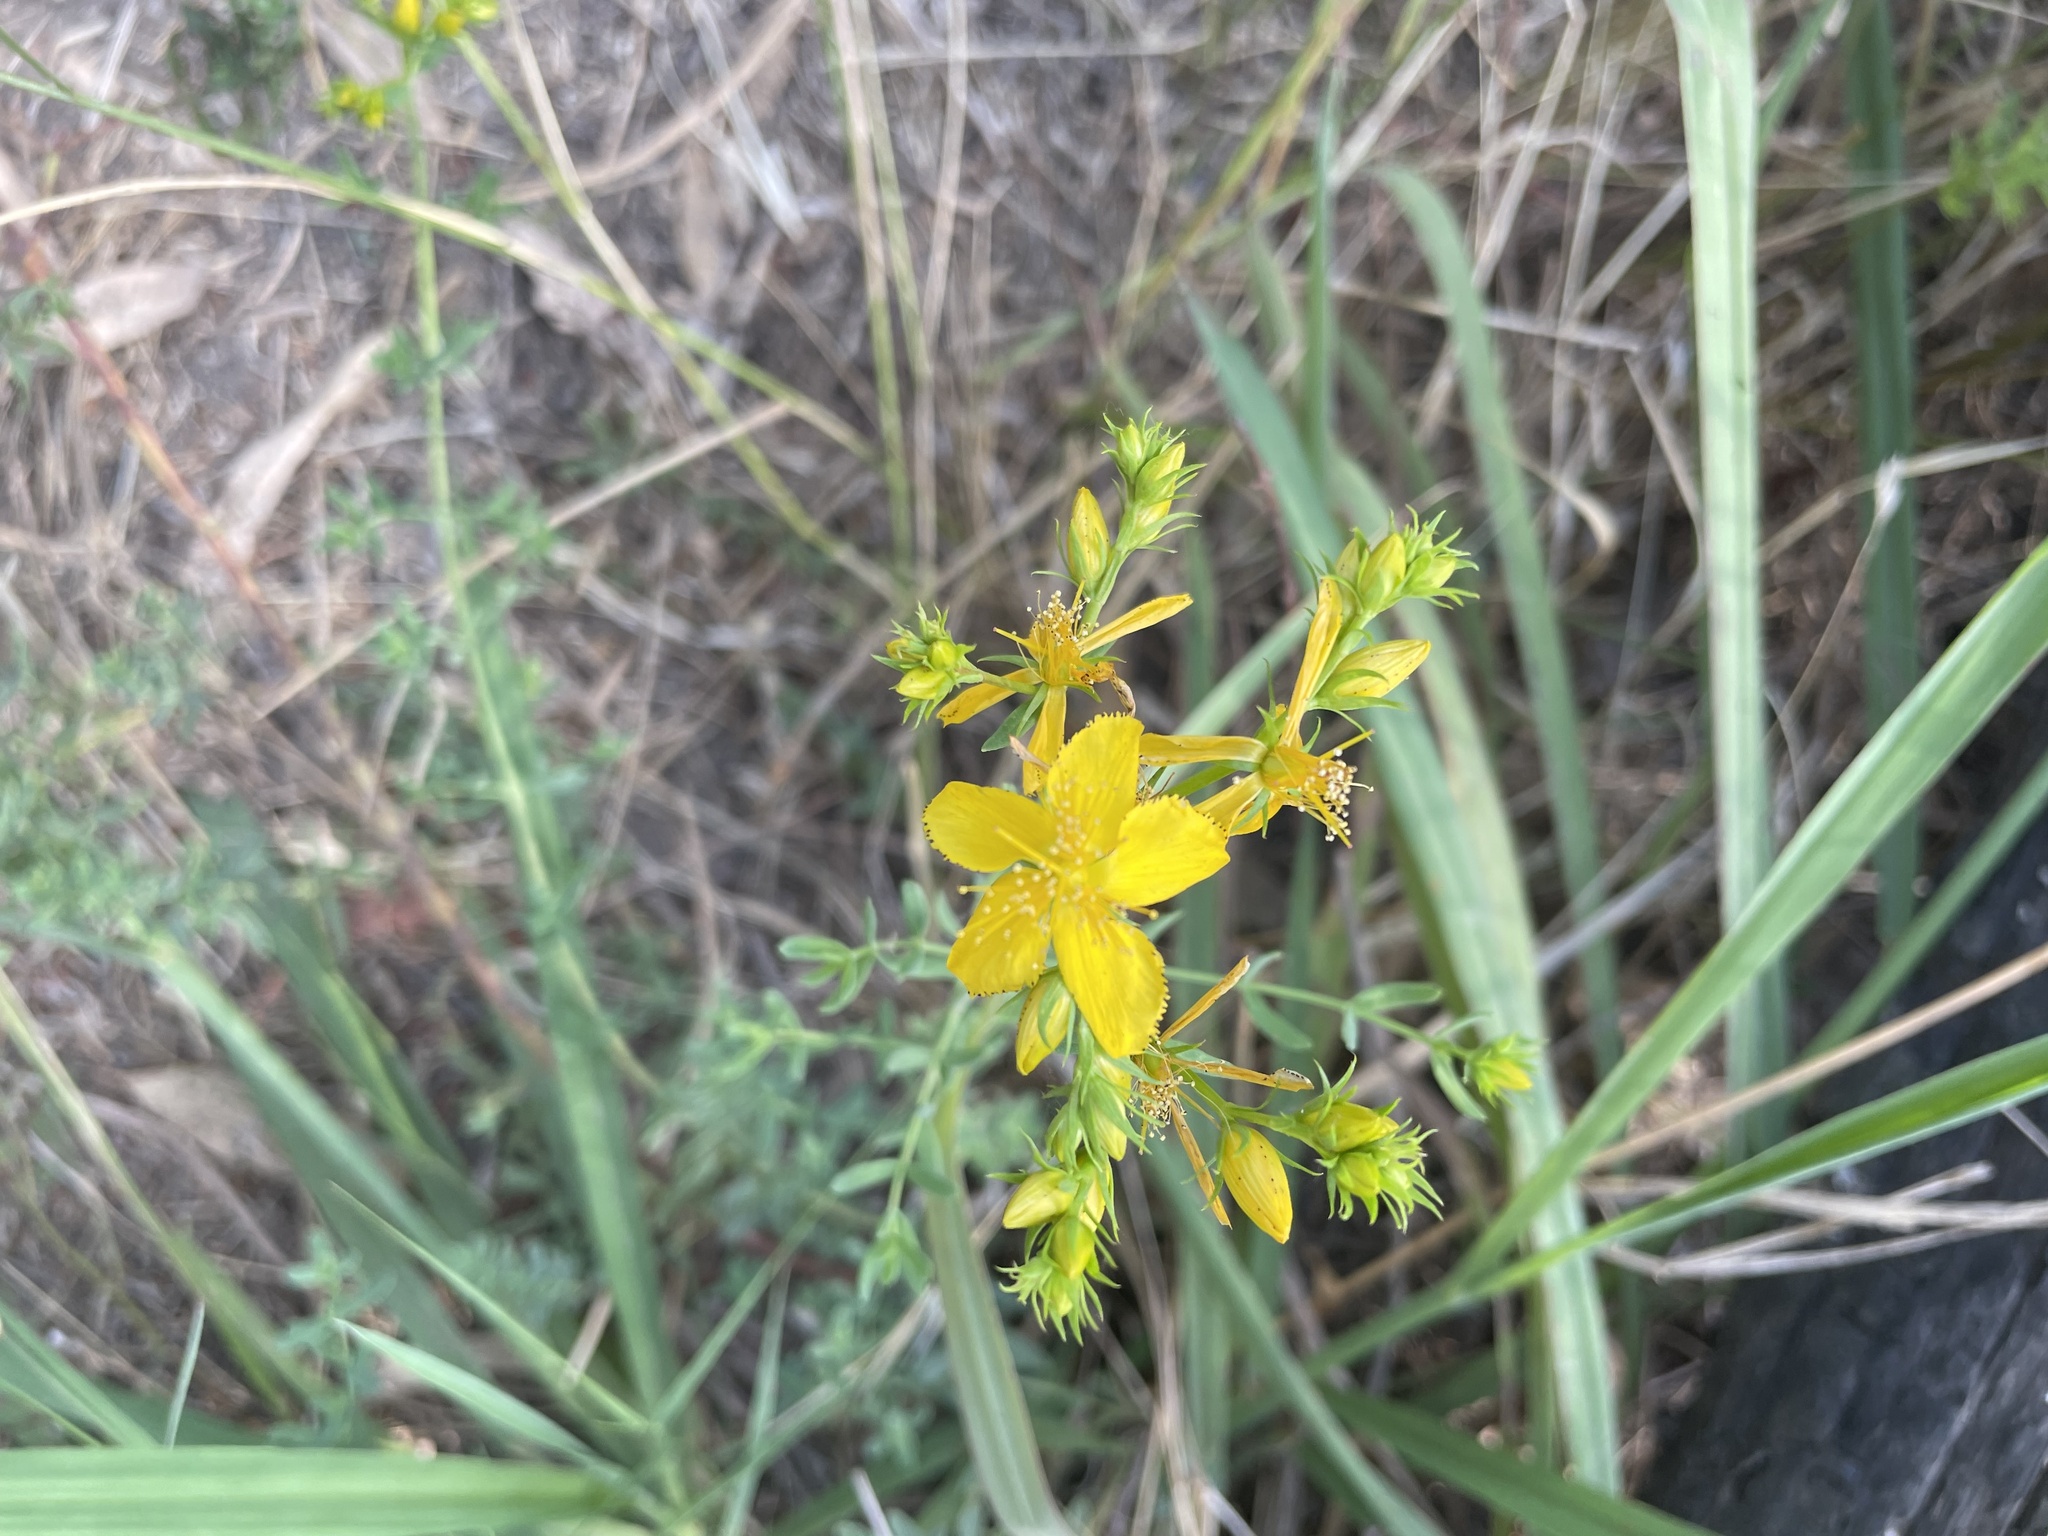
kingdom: Plantae
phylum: Tracheophyta
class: Magnoliopsida
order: Malpighiales
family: Hypericaceae
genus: Hypericum
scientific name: Hypericum perforatum
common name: Common st. johnswort
